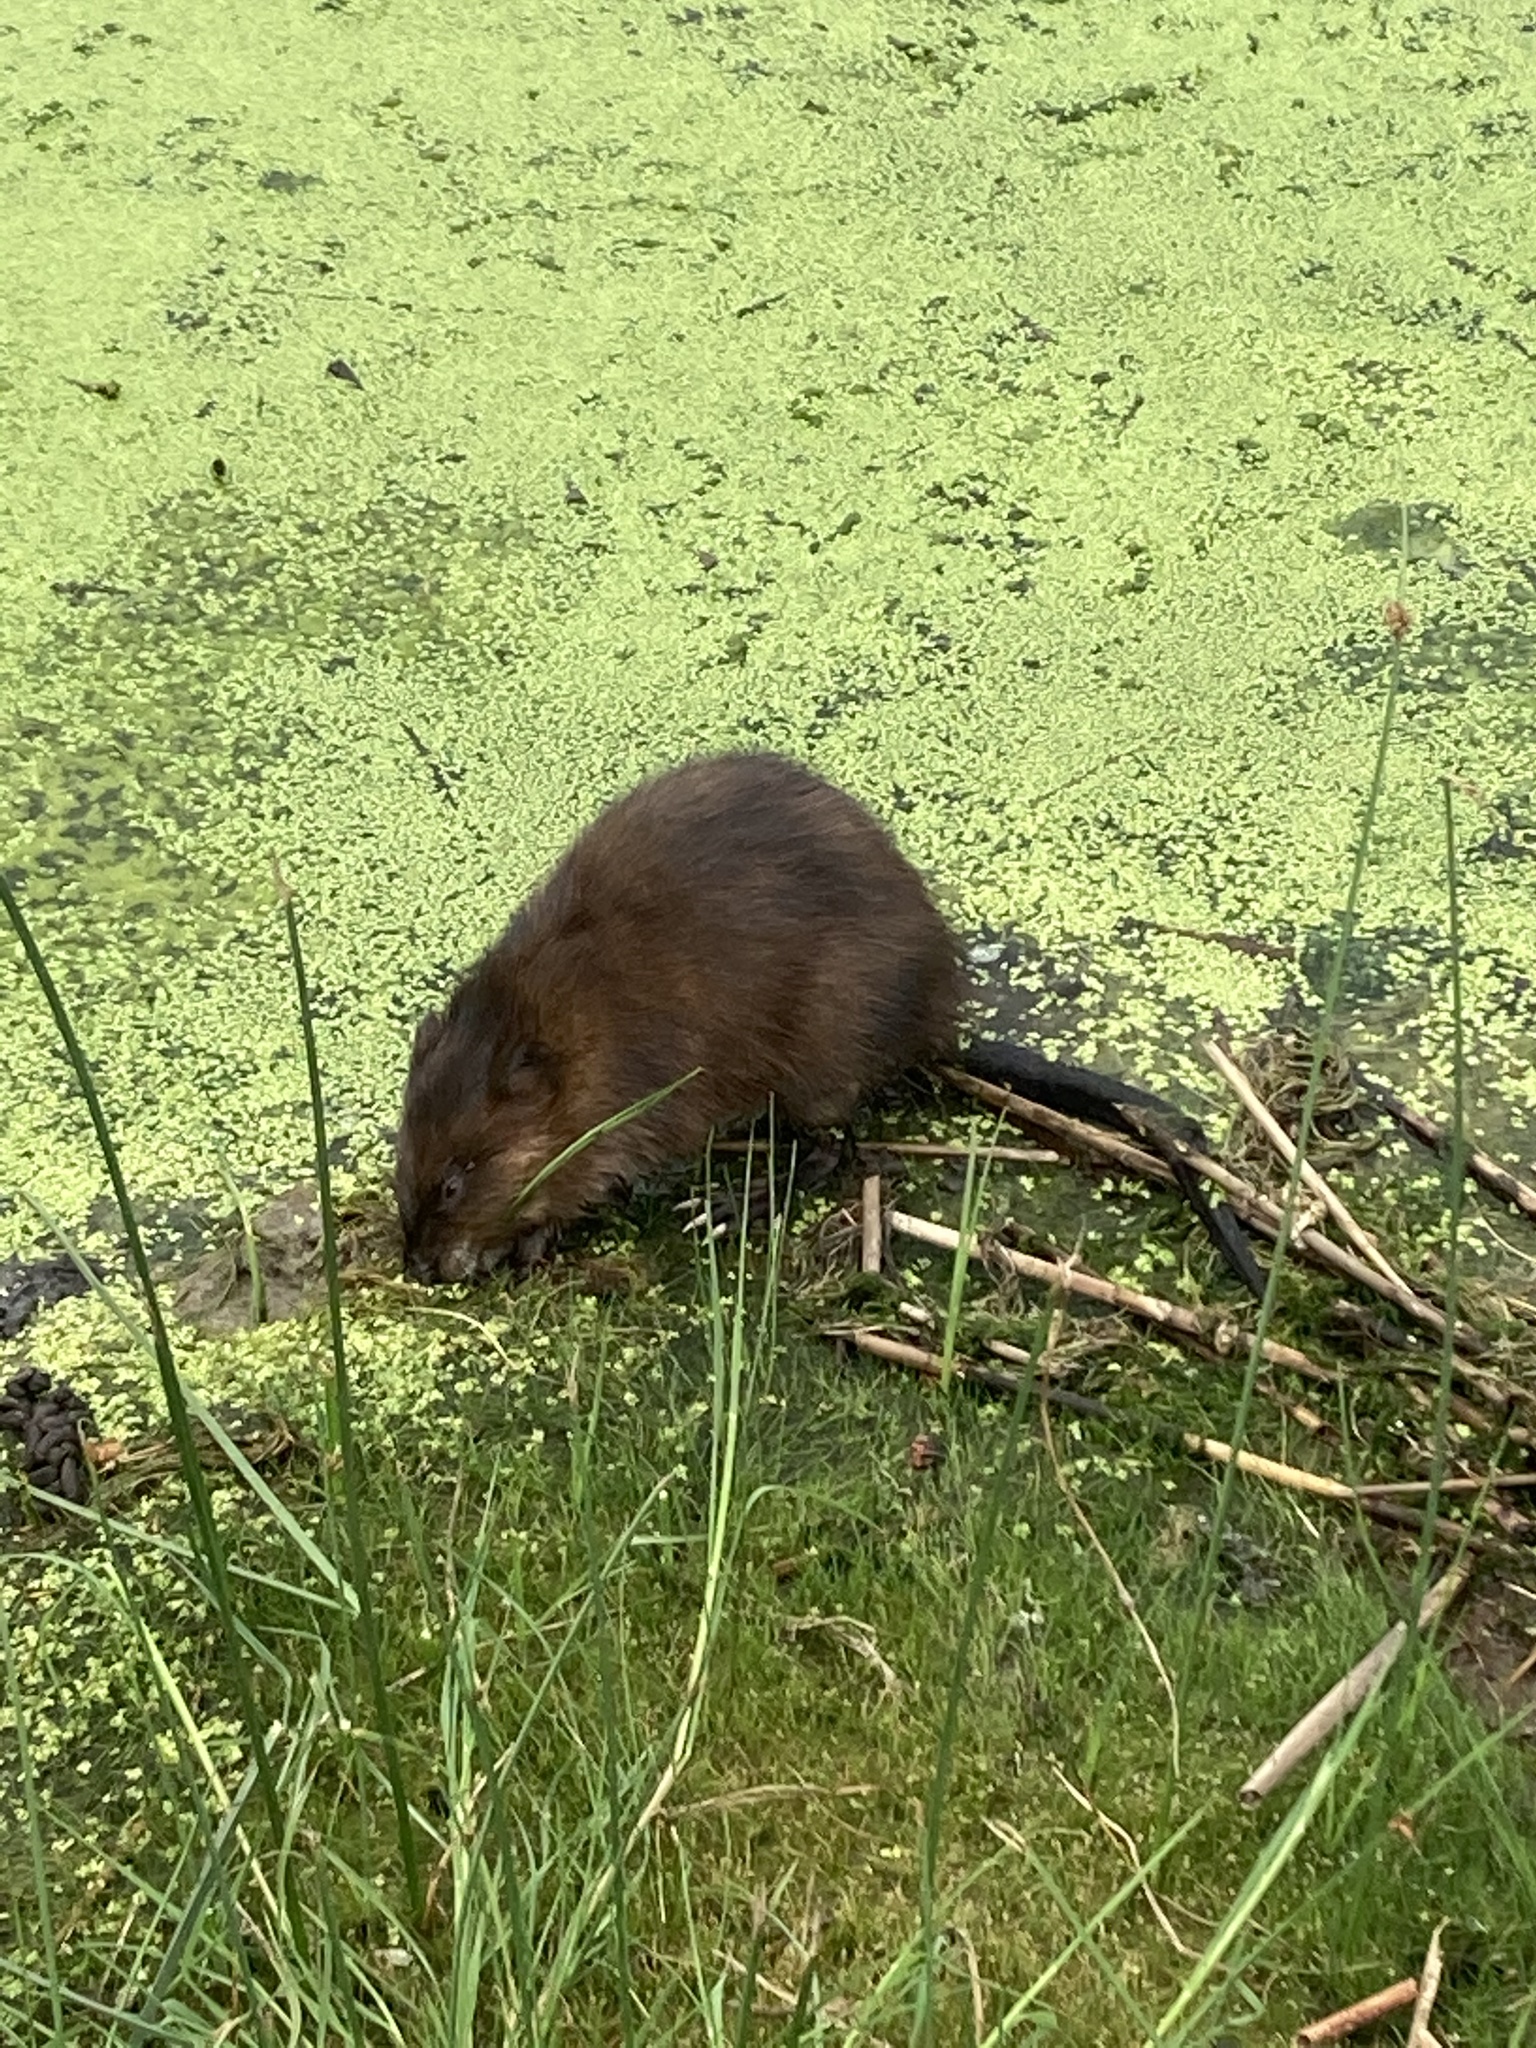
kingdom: Animalia
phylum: Chordata
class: Mammalia
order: Rodentia
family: Cricetidae
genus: Ondatra
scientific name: Ondatra zibethicus
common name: Muskrat
